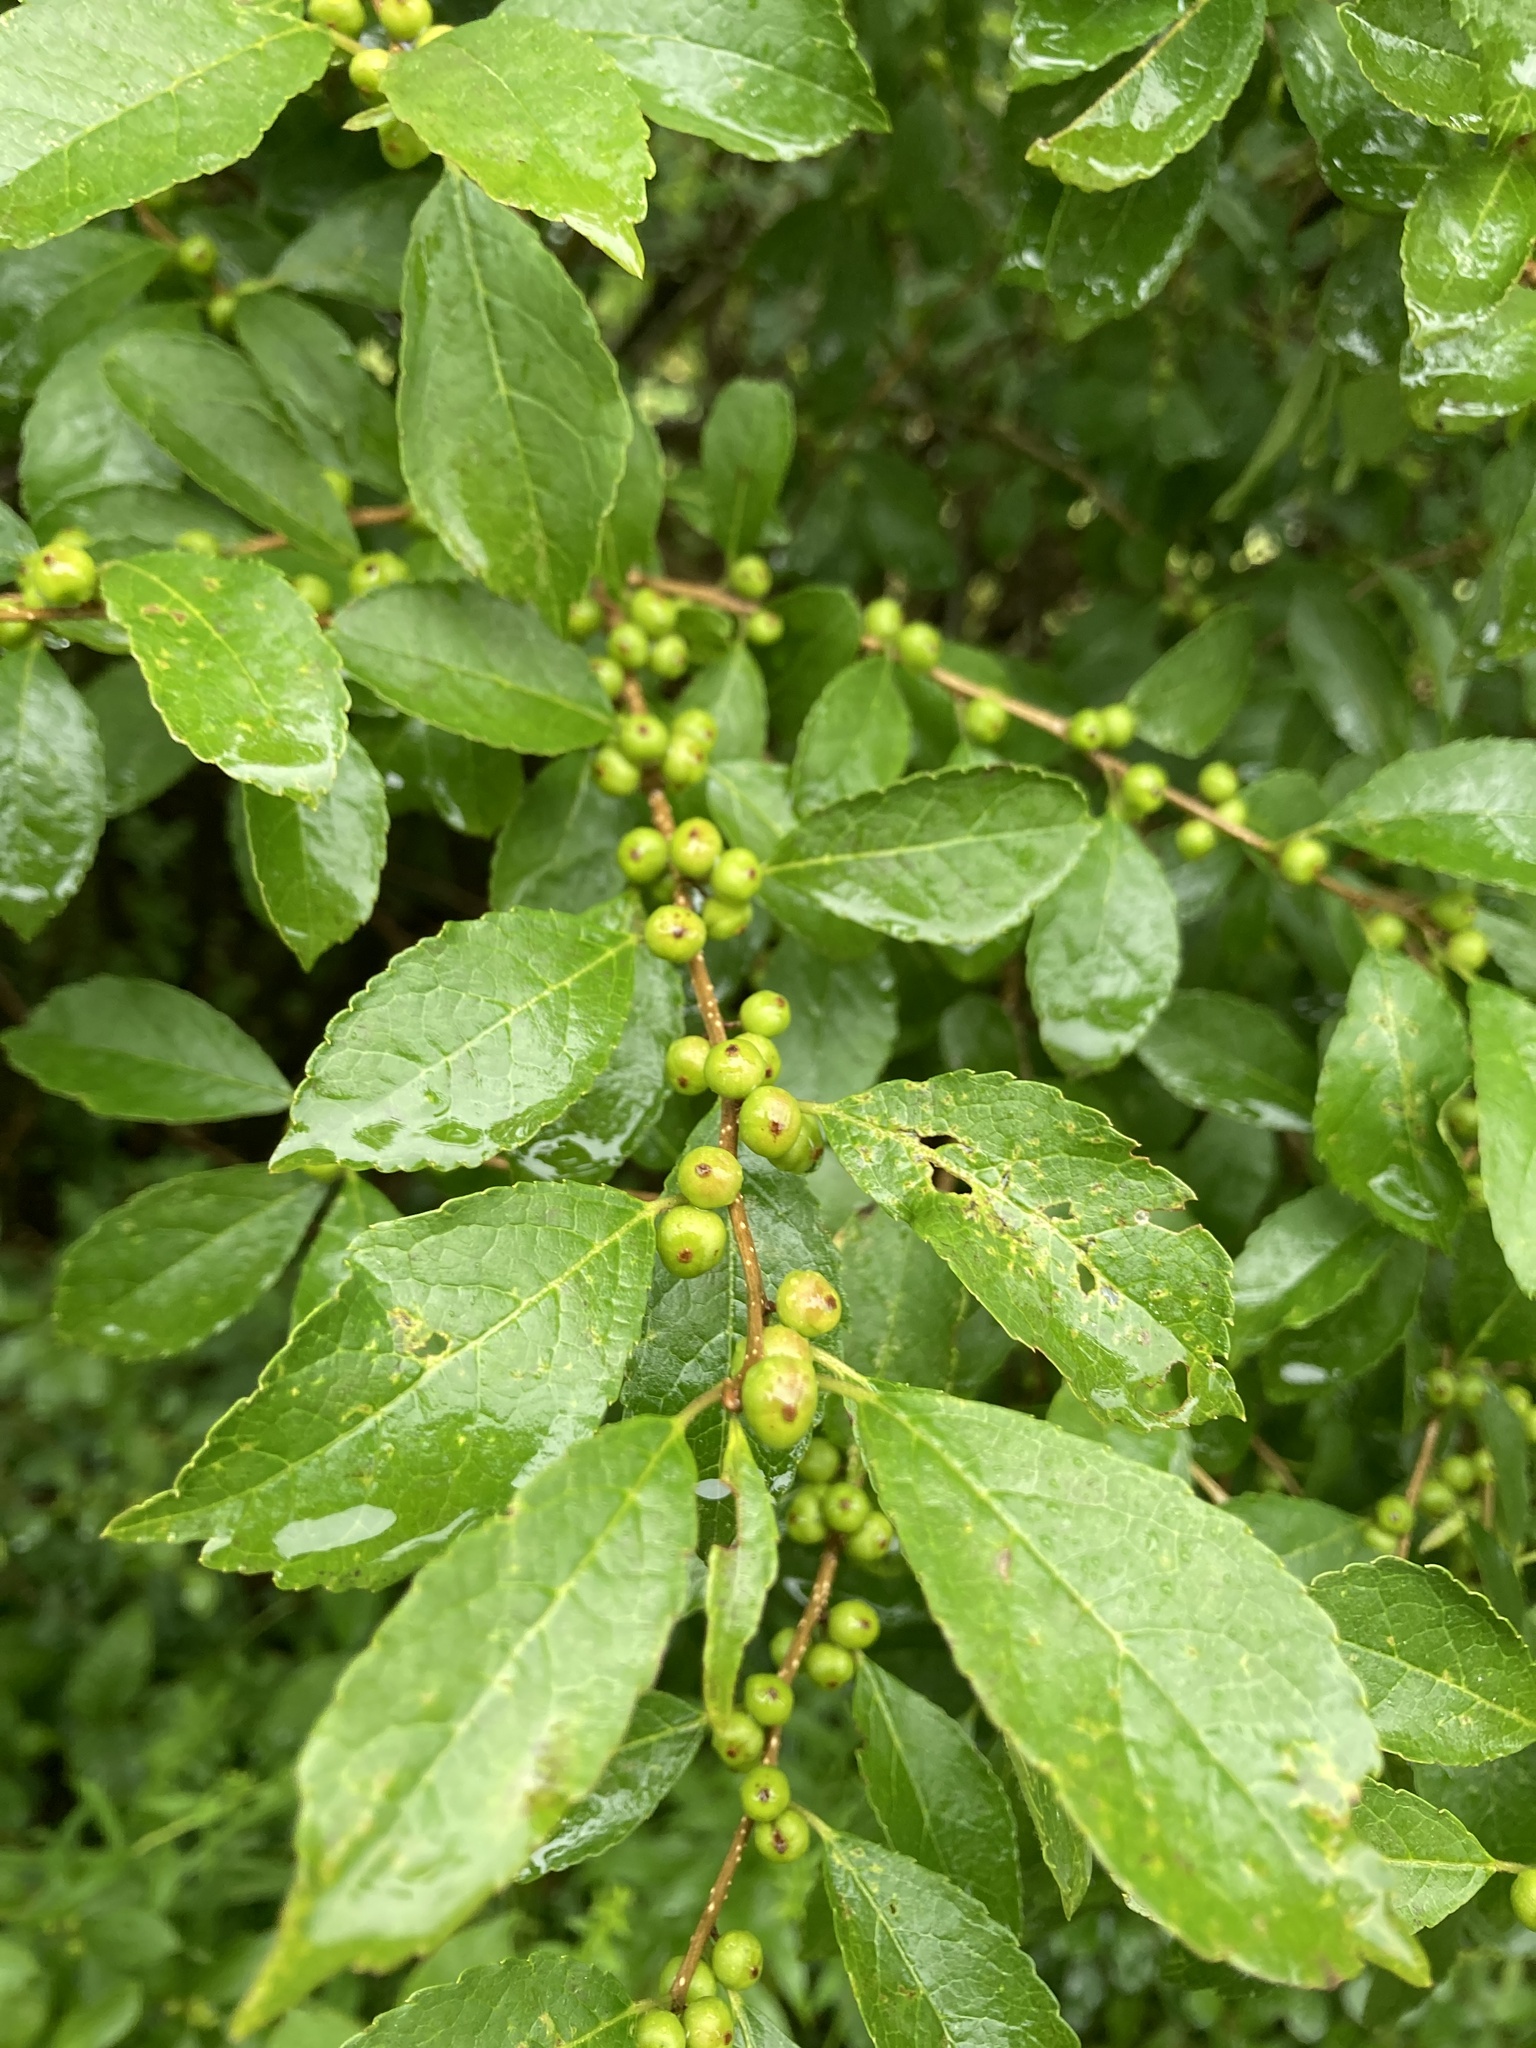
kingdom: Plantae
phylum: Tracheophyta
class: Magnoliopsida
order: Aquifoliales
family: Aquifoliaceae
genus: Ilex
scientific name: Ilex verticillata
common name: Virginia winterberry
